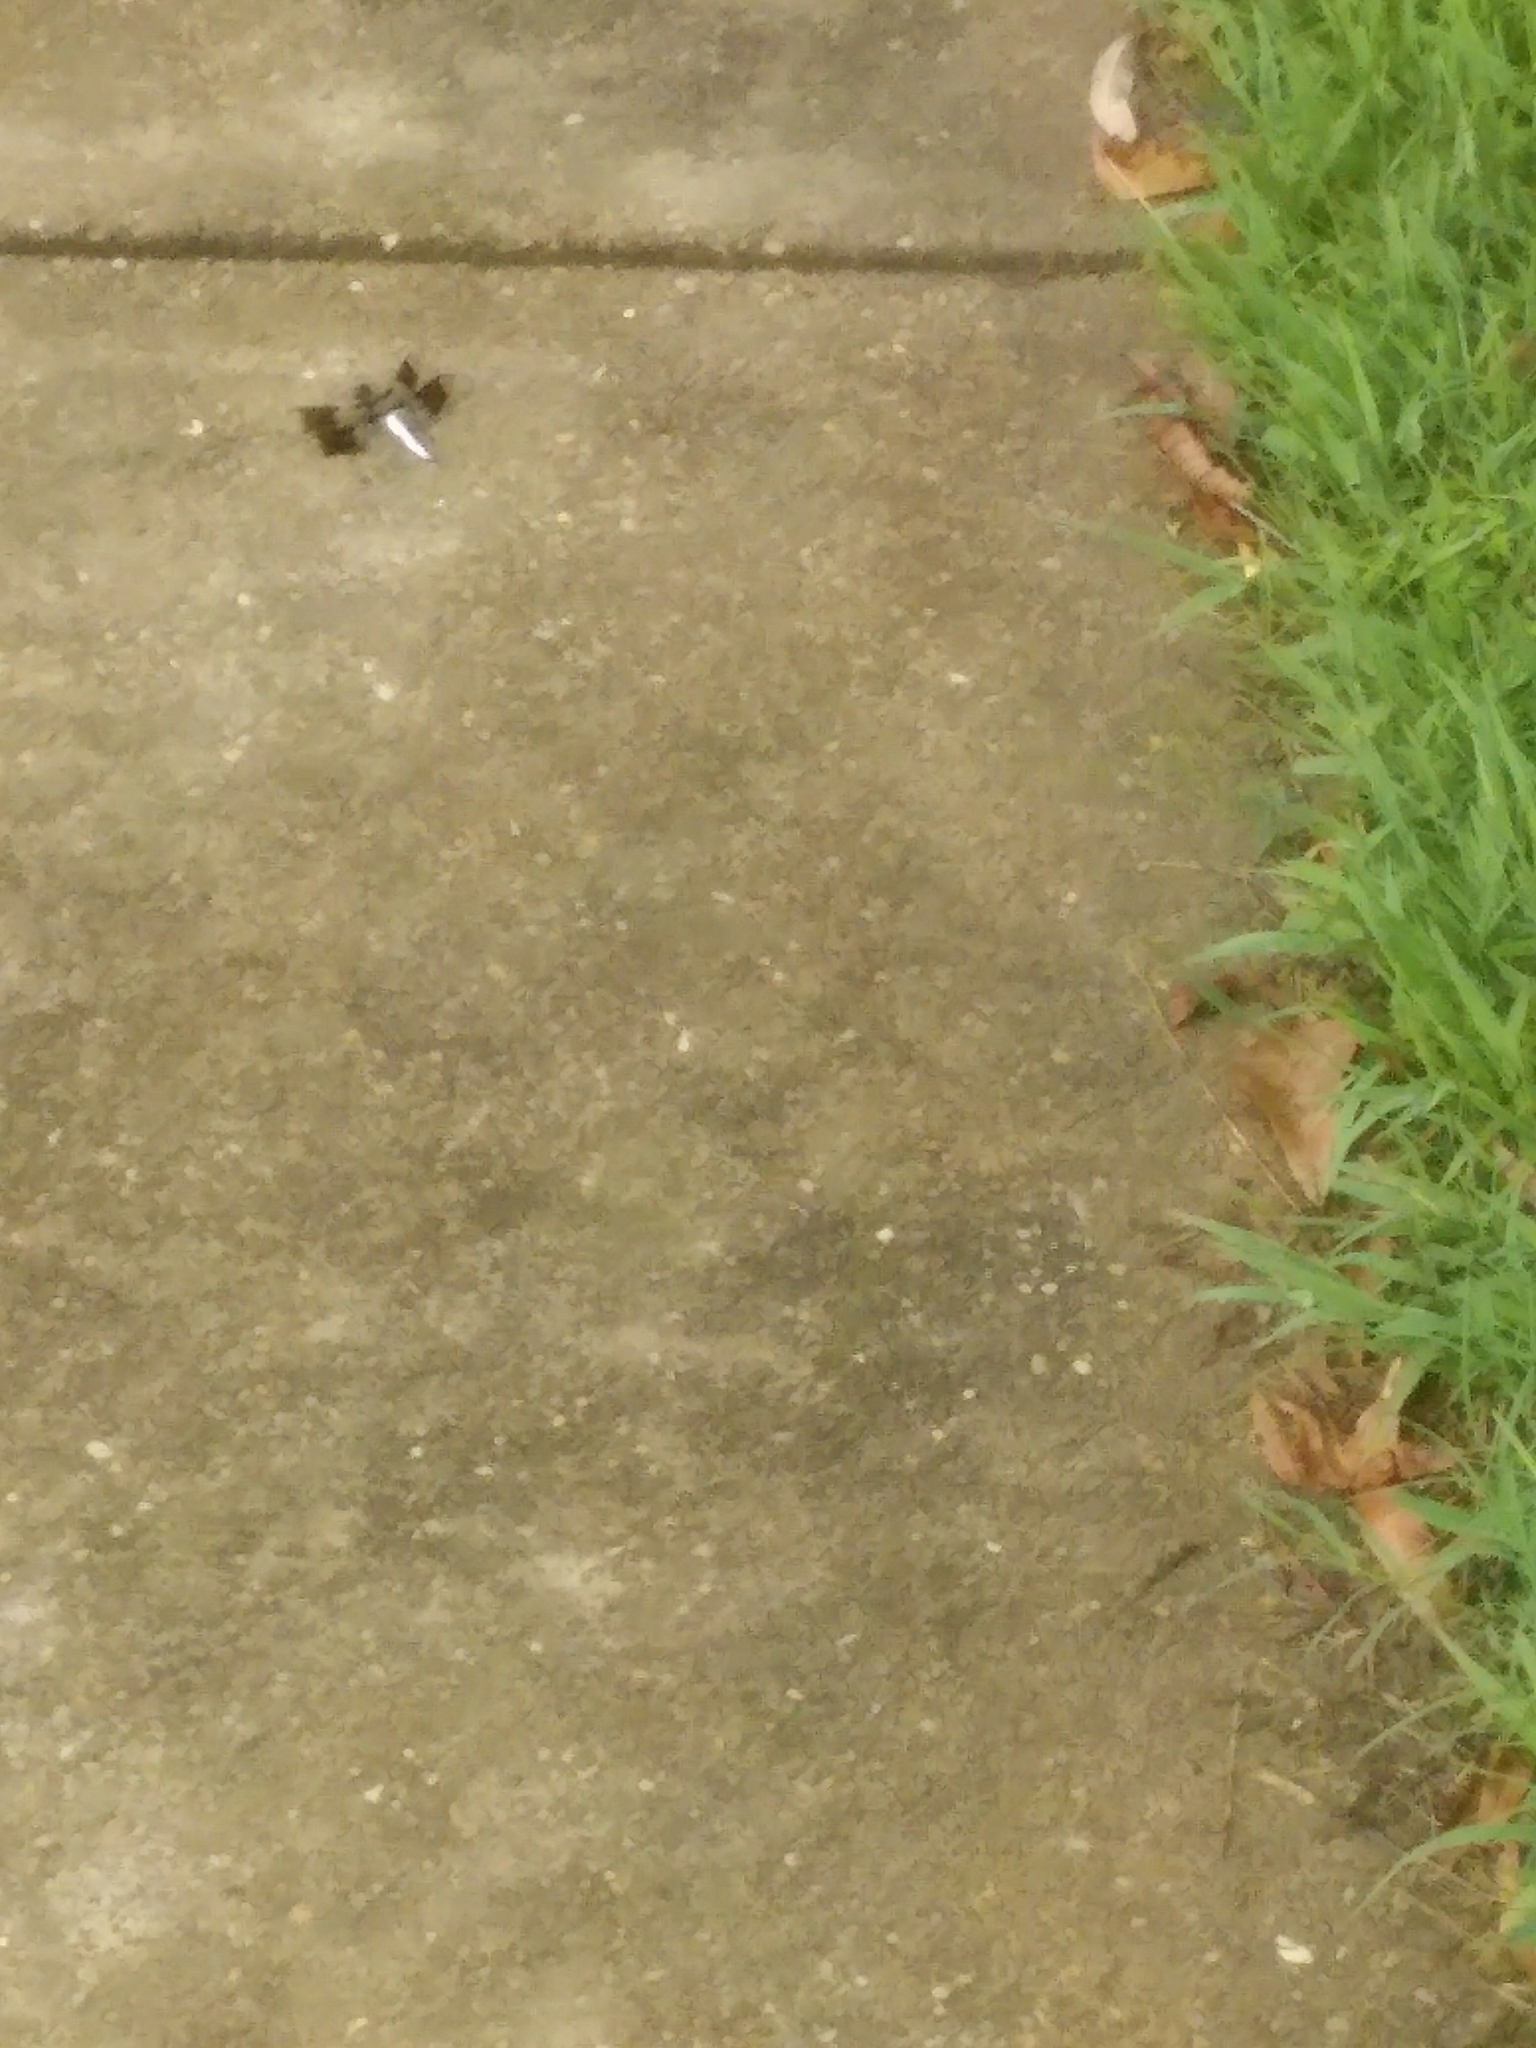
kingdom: Animalia
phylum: Arthropoda
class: Insecta
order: Odonata
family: Libellulidae
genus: Plathemis
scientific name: Plathemis lydia
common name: Common whitetail
